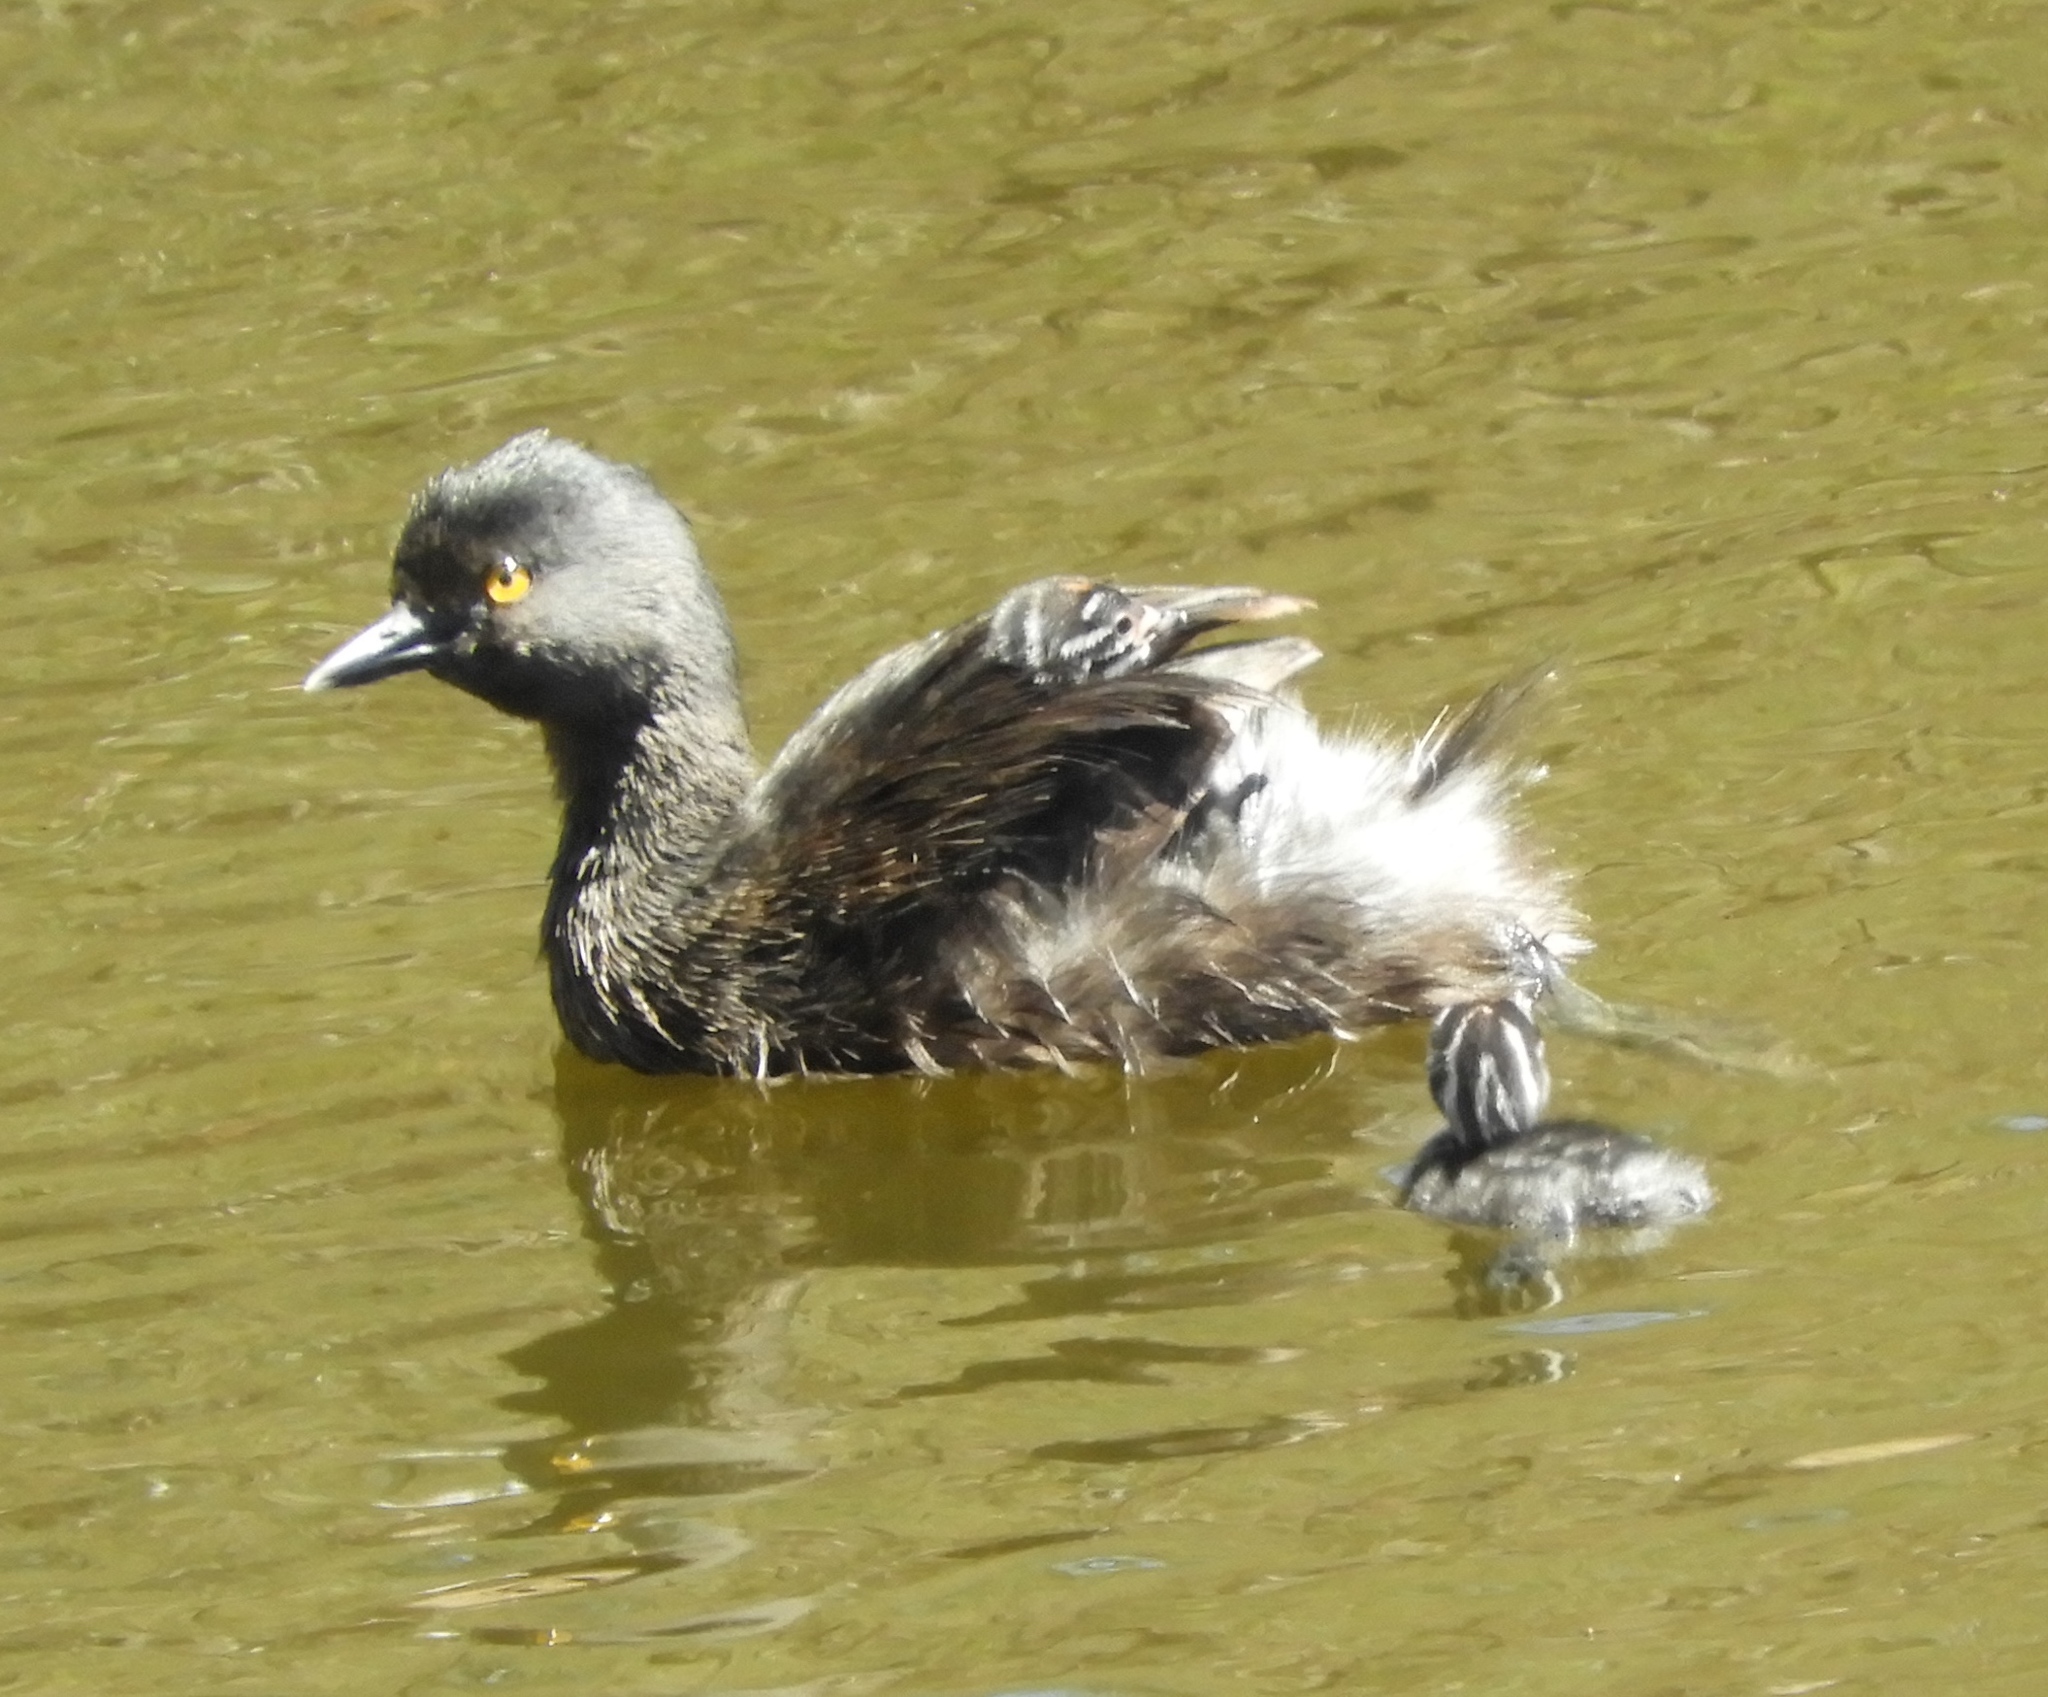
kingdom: Animalia
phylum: Chordata
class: Aves
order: Podicipediformes
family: Podicipedidae
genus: Tachybaptus
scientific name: Tachybaptus dominicus
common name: Least grebe
